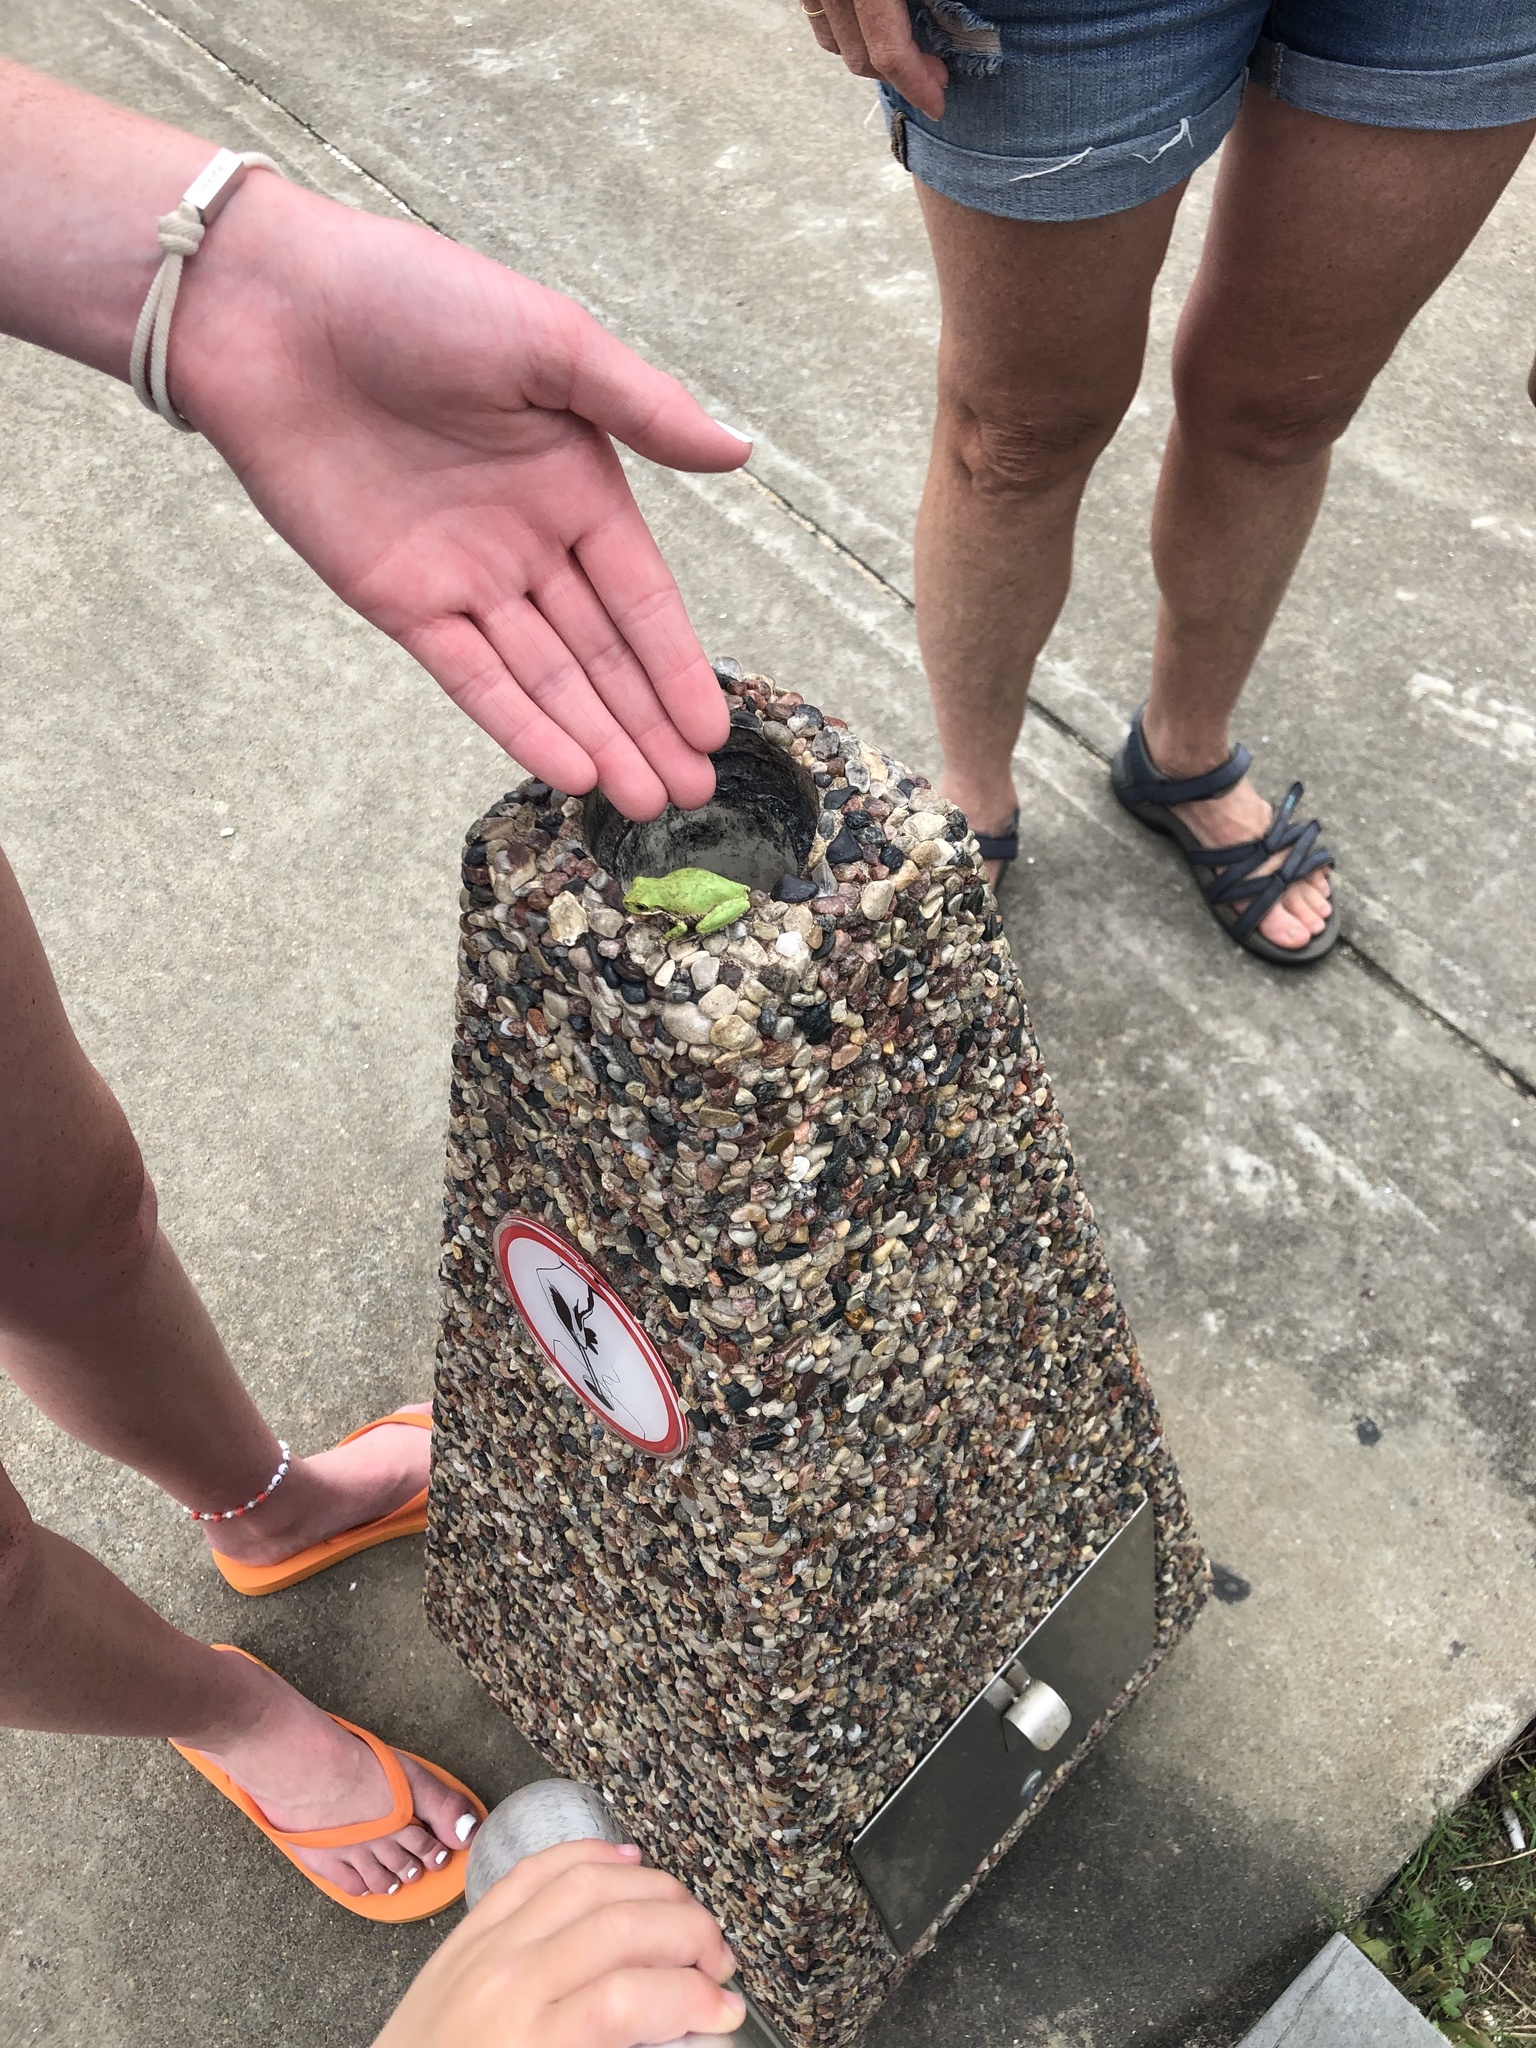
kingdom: Animalia
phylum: Chordata
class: Amphibia
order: Anura
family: Hylidae
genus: Dryophytes
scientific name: Dryophytes squirellus
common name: Squirrel treefrog
